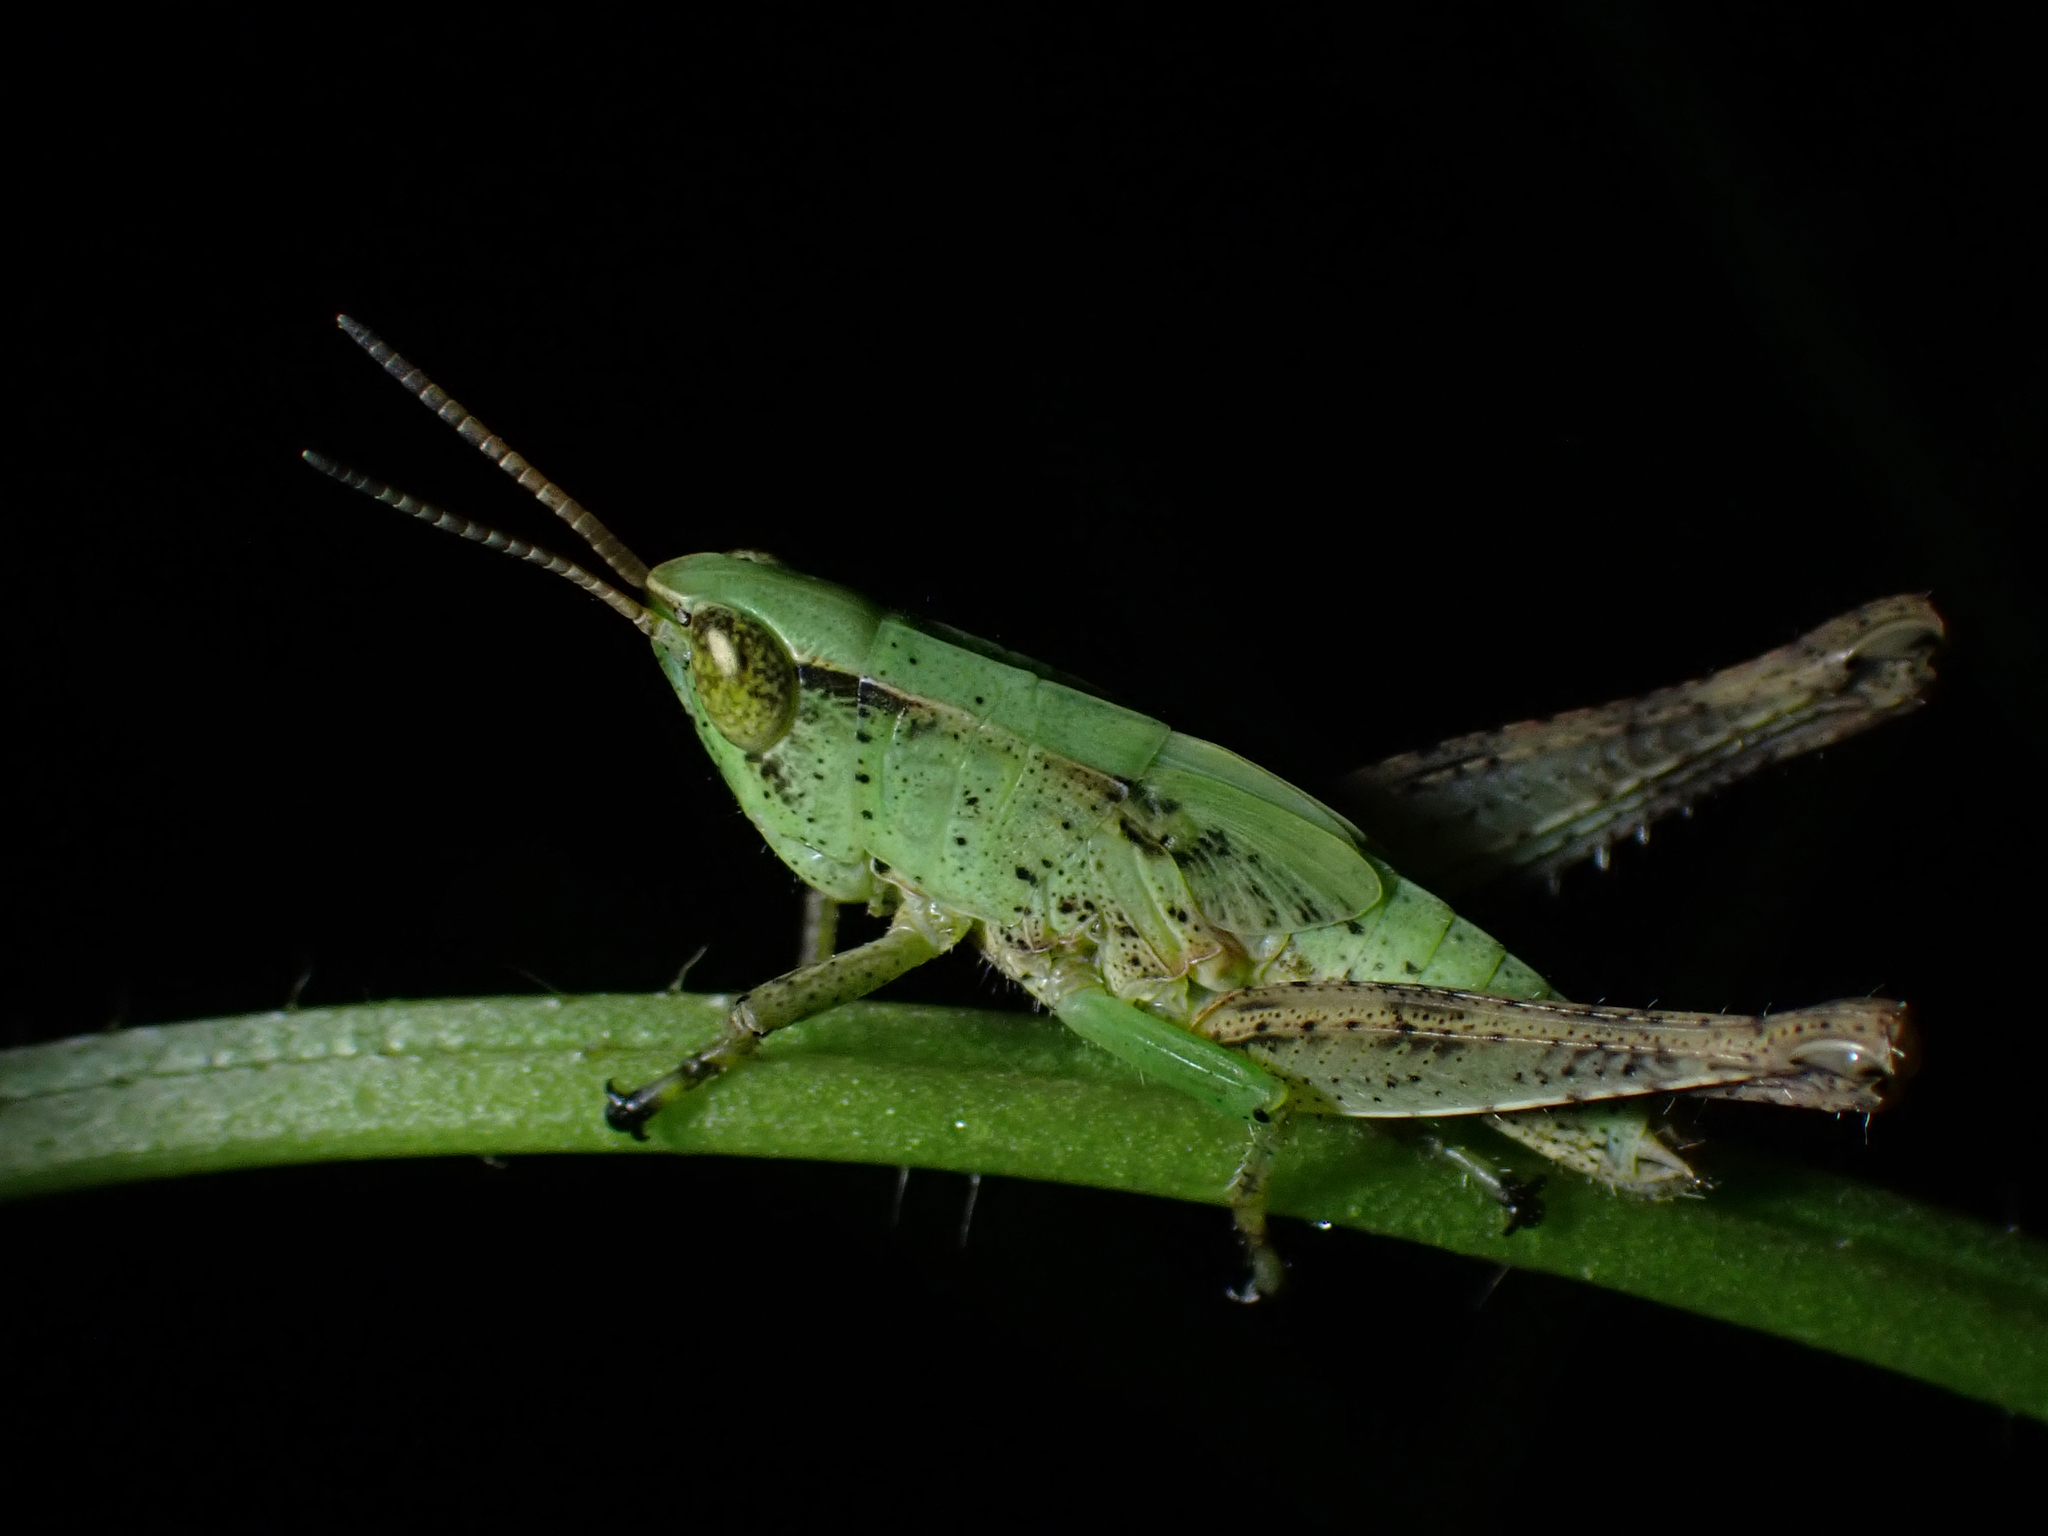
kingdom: Animalia
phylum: Arthropoda
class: Insecta
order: Orthoptera
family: Acrididae
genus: Dichromorpha
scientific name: Dichromorpha viridis
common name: Short-winged green grasshopper
